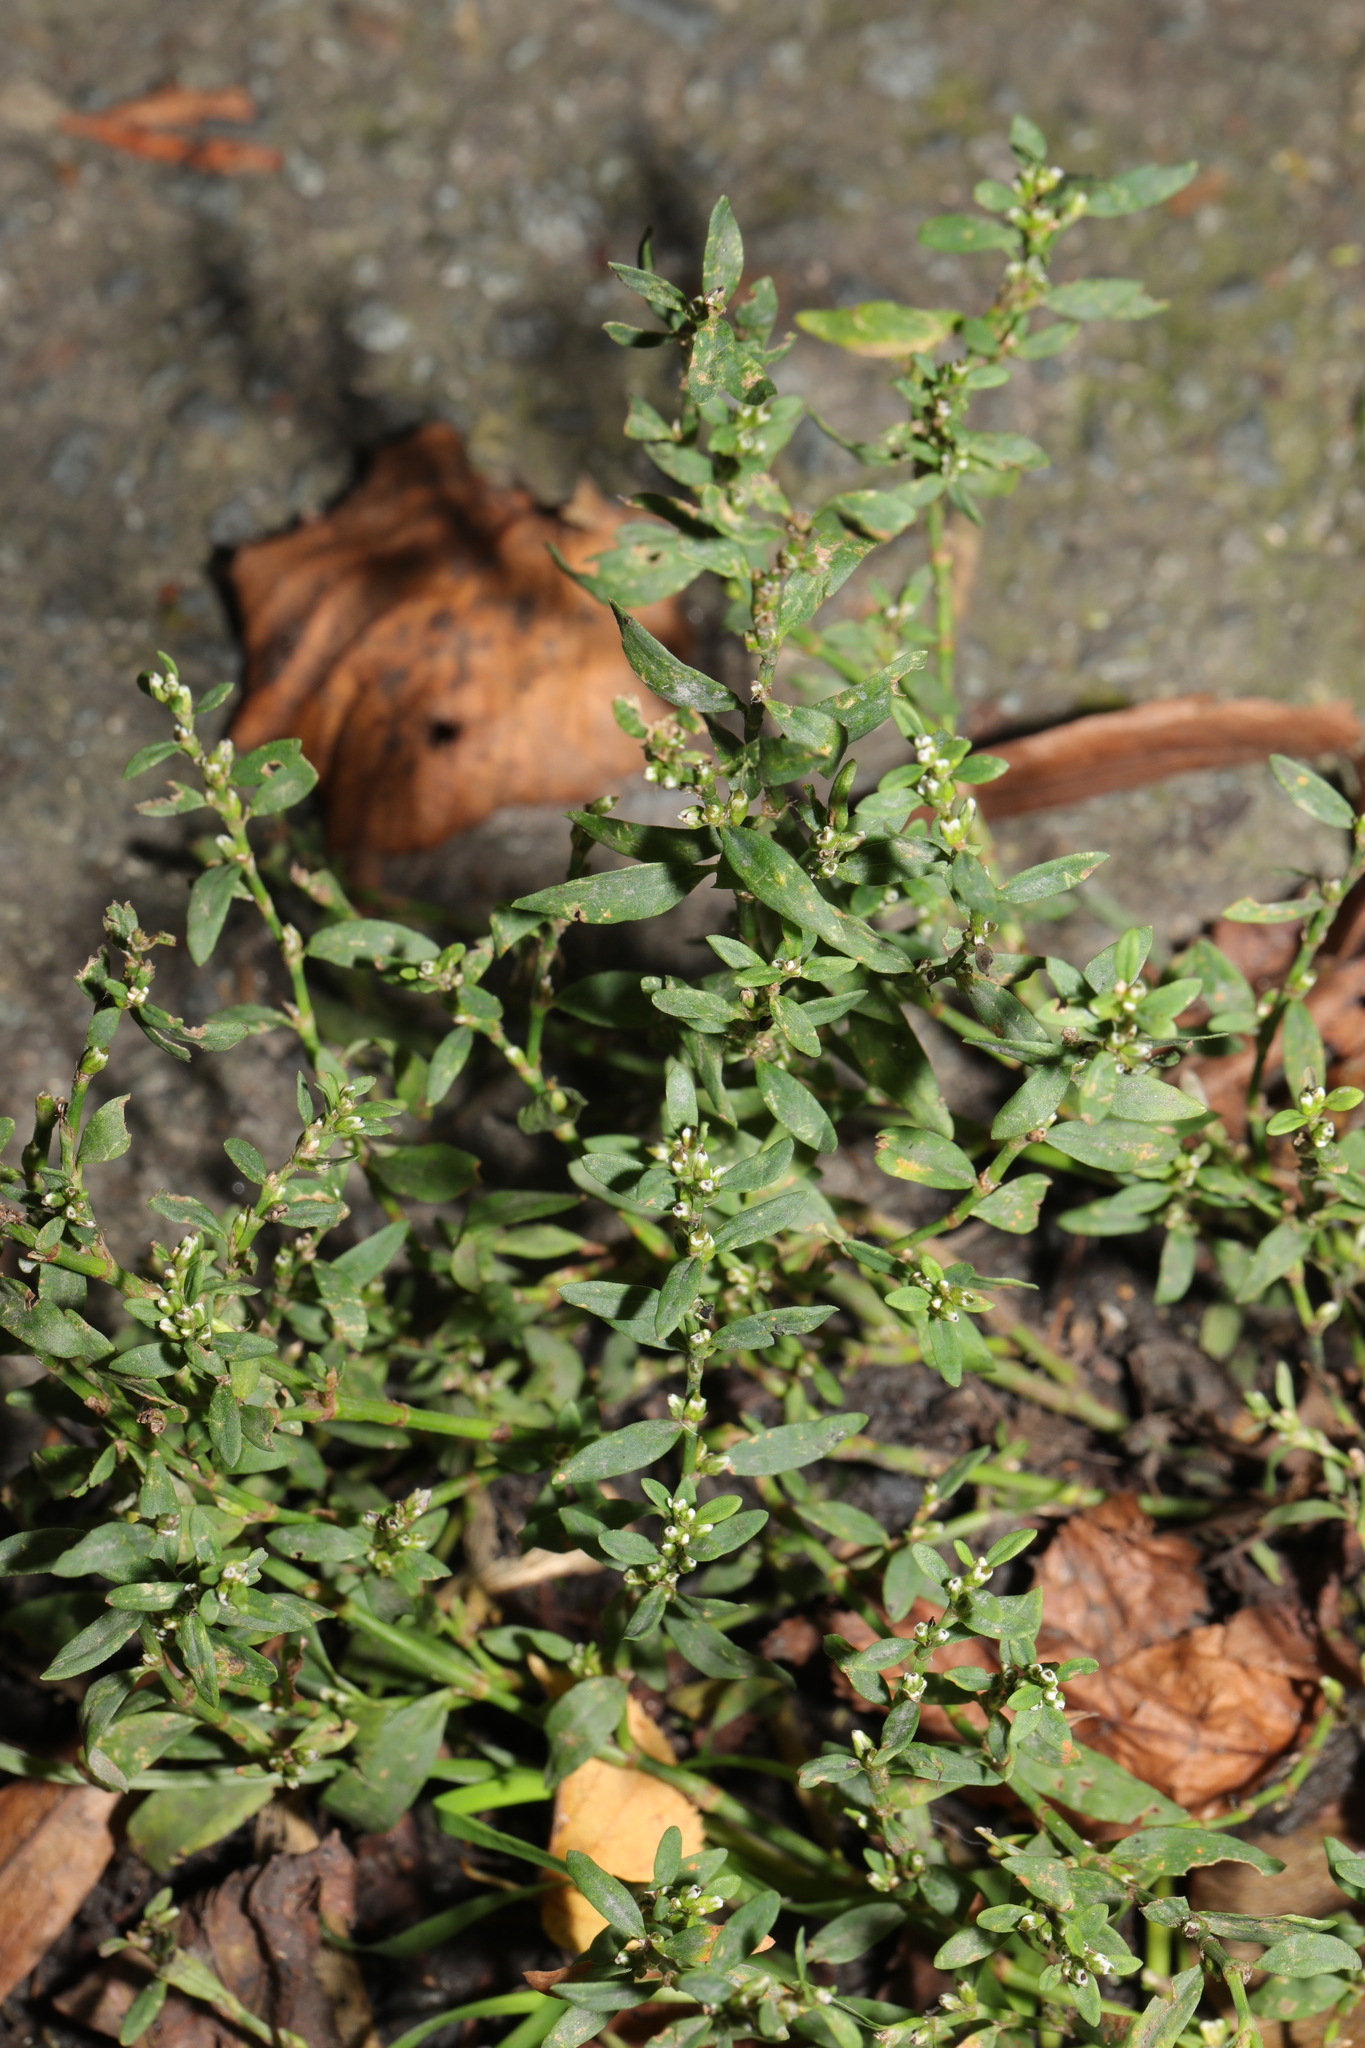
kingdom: Plantae
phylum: Tracheophyta
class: Magnoliopsida
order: Caryophyllales
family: Polygonaceae
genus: Polygonum
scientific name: Polygonum aviculare
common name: Prostrate knotweed
